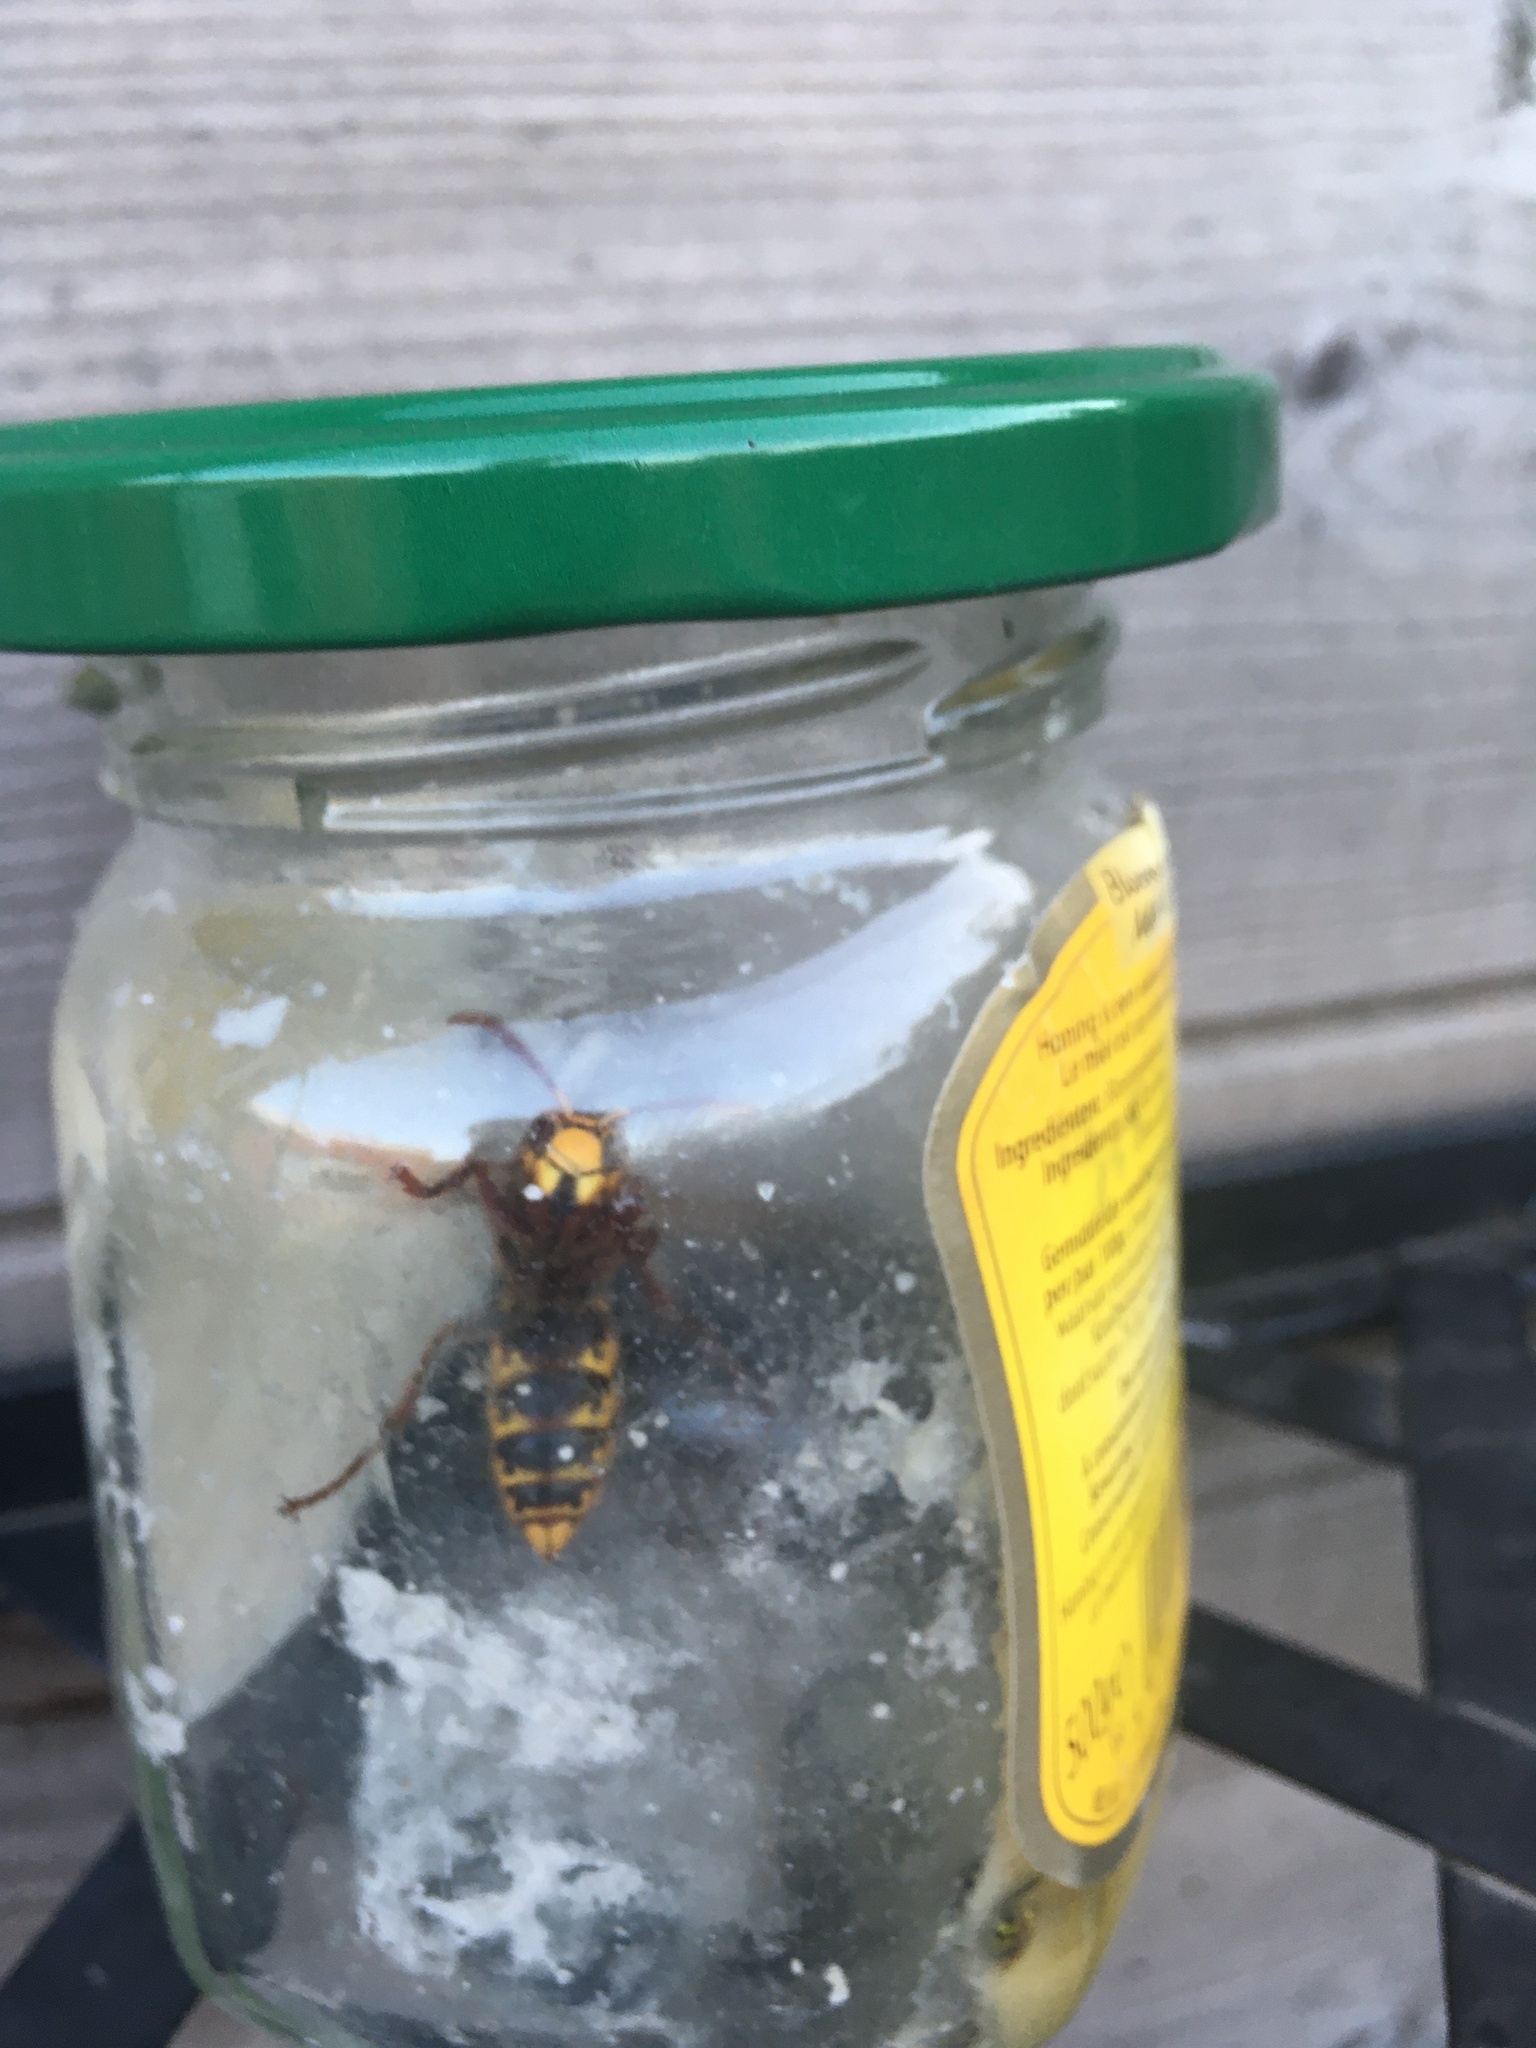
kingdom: Animalia
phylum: Arthropoda
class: Insecta
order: Hymenoptera
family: Vespidae
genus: Vespa
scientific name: Vespa crabro
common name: Hornet
